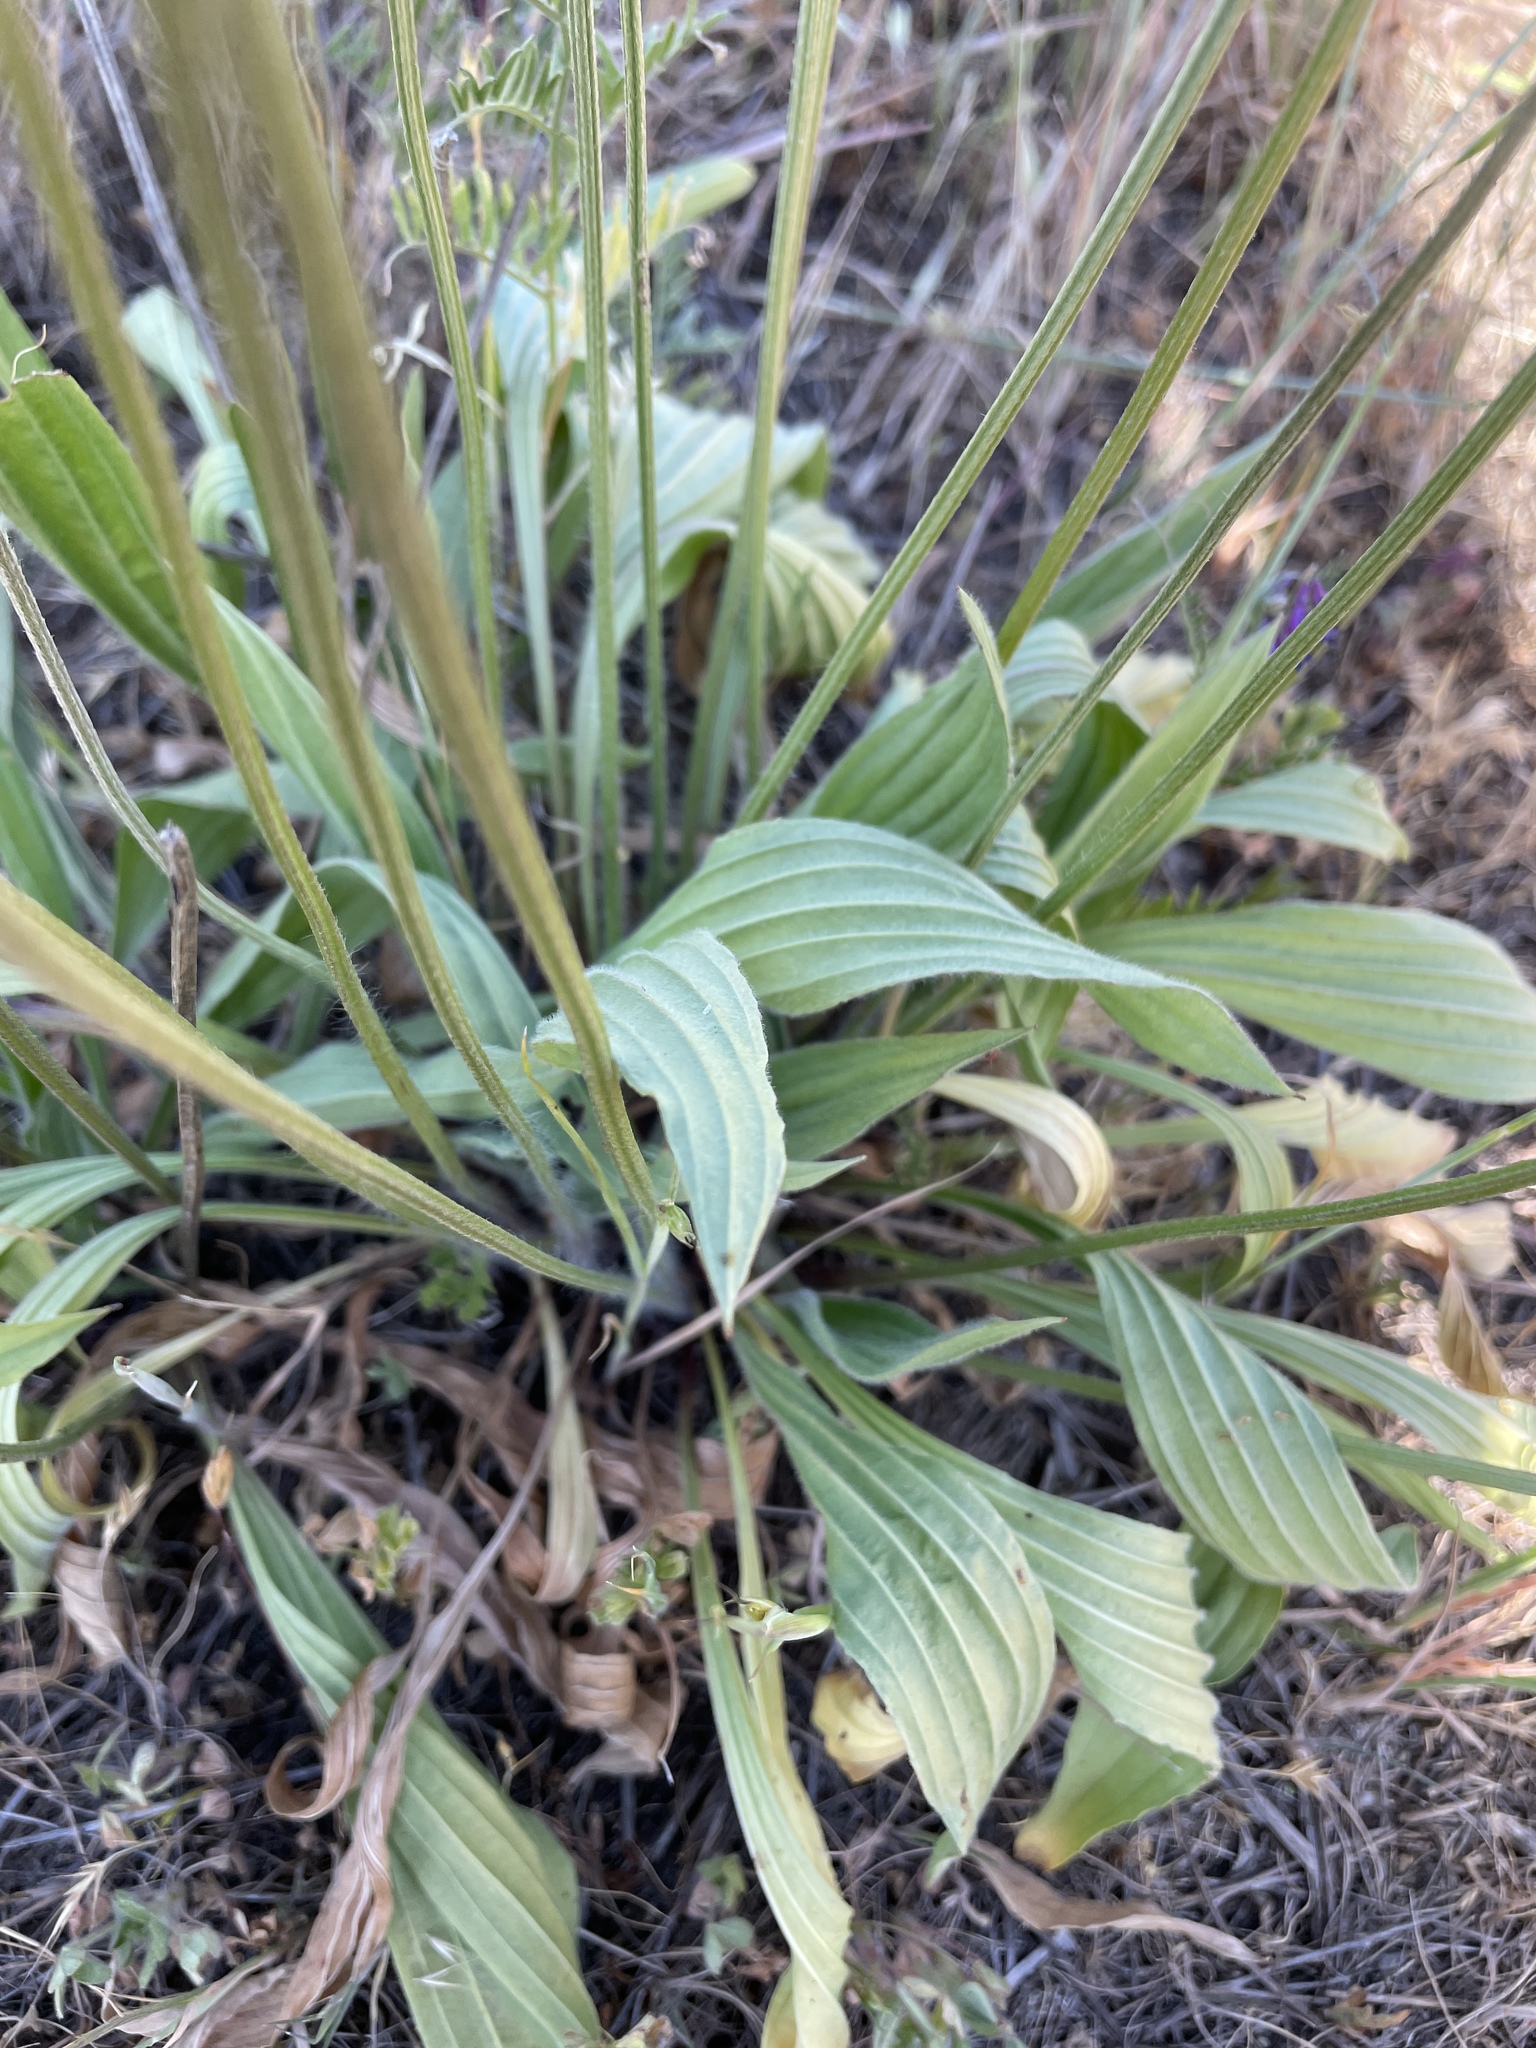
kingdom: Plantae
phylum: Tracheophyta
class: Magnoliopsida
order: Lamiales
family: Plantaginaceae
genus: Plantago
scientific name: Plantago lanceolata
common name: Ribwort plantain
